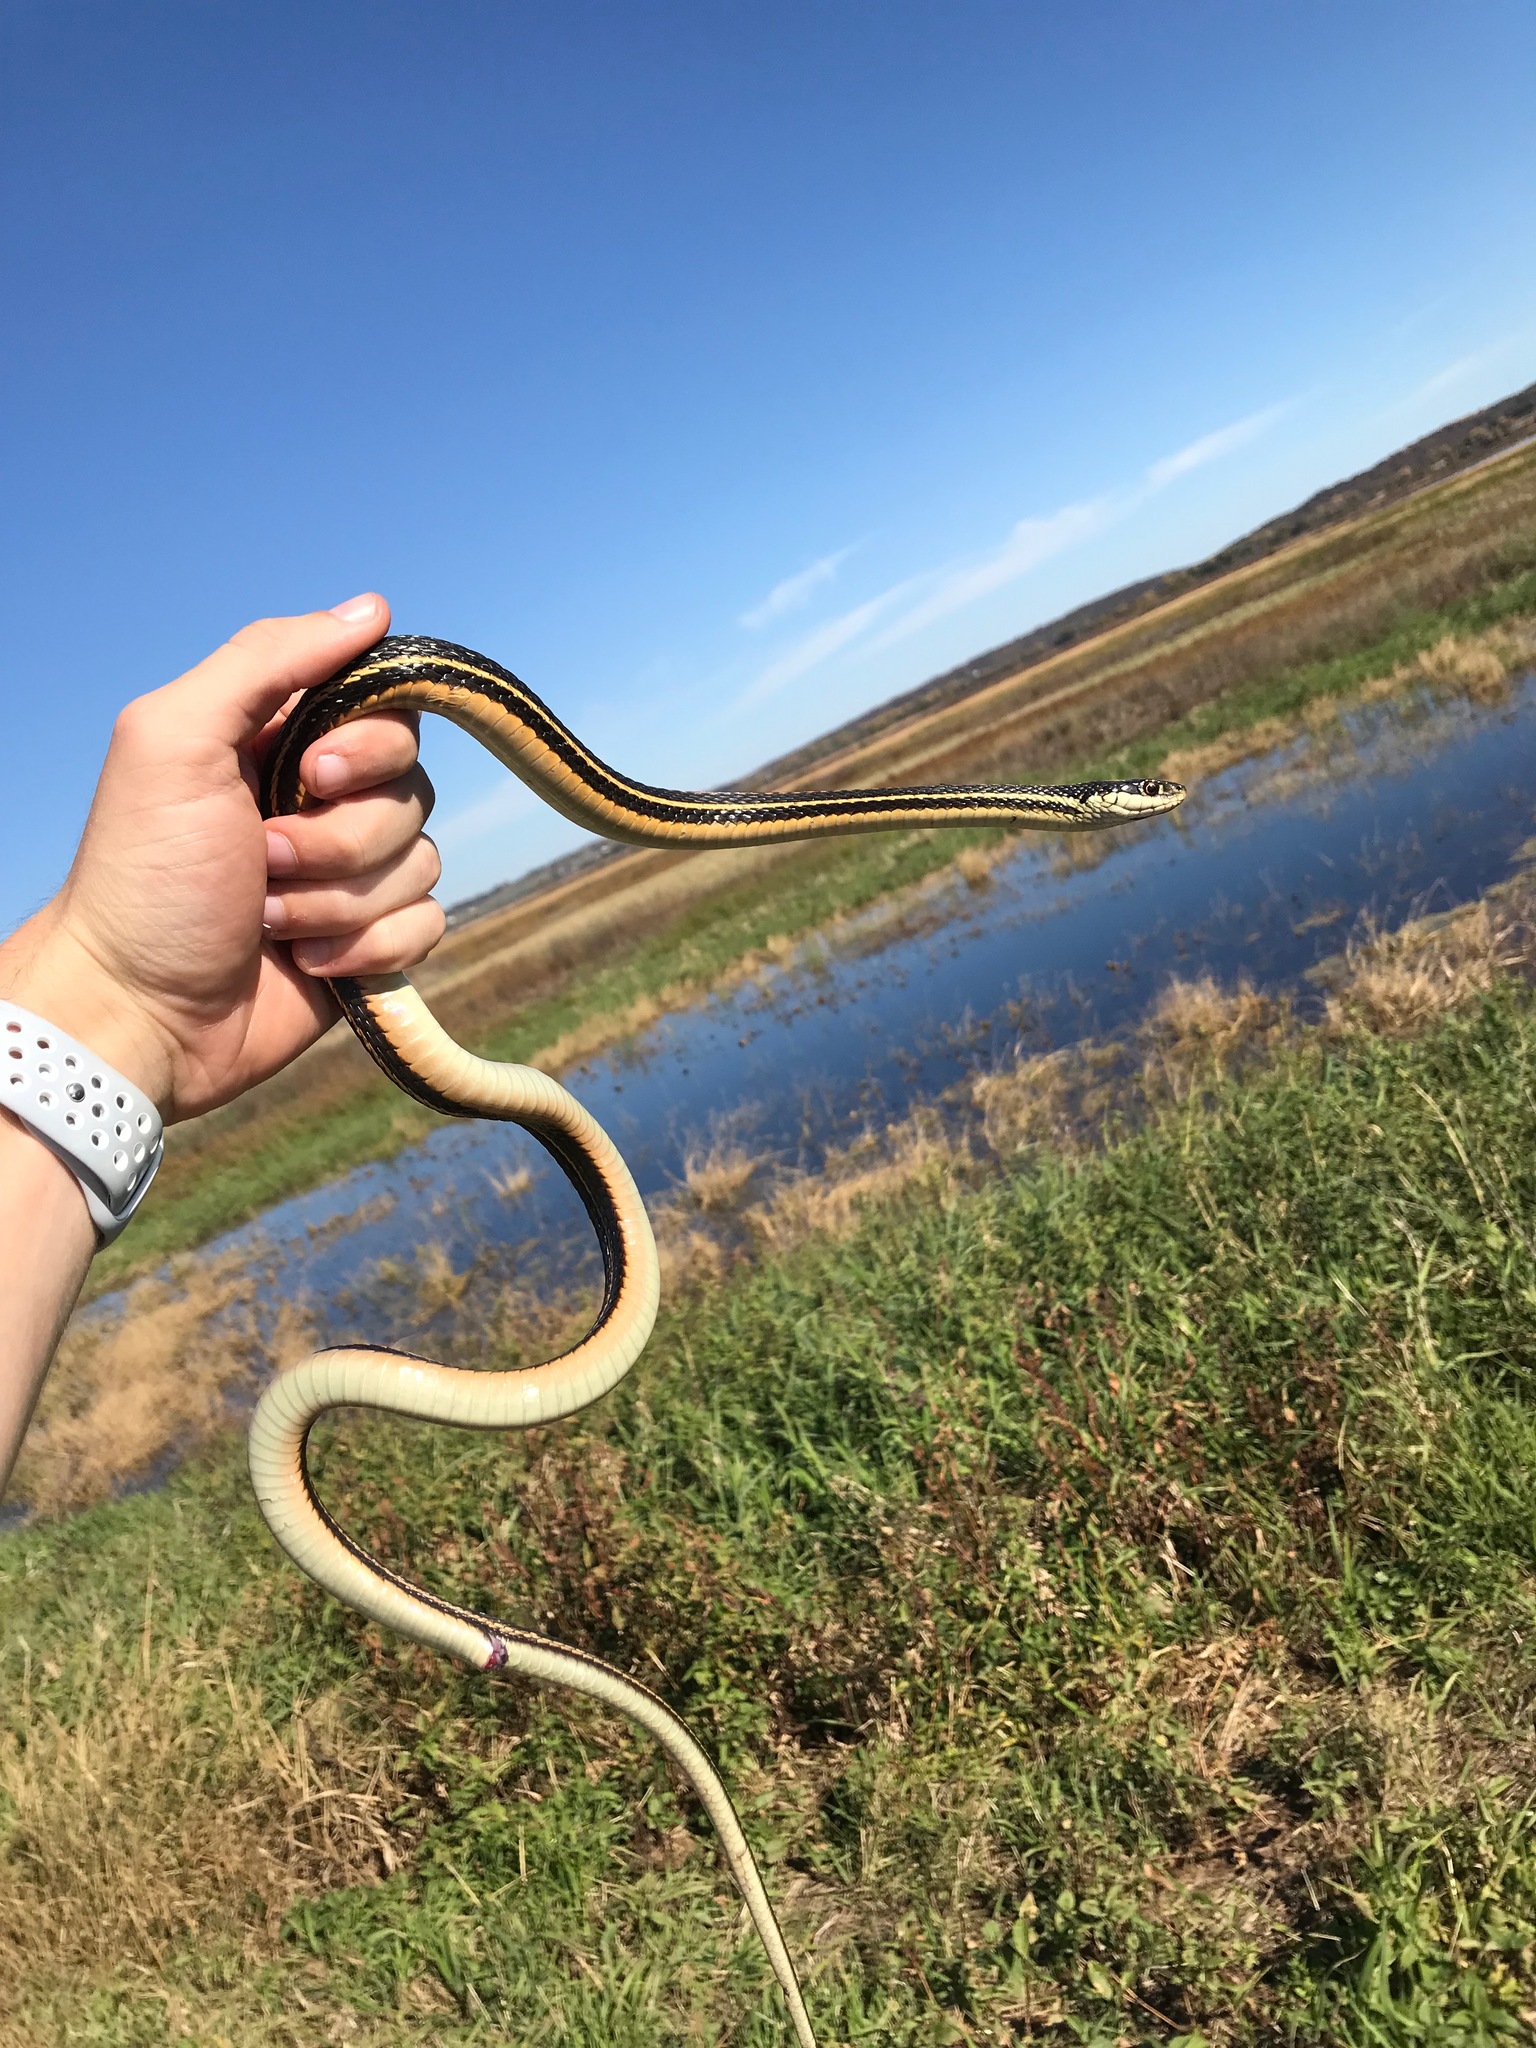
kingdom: Animalia
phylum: Chordata
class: Squamata
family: Colubridae
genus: Thamnophis
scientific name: Thamnophis proximus
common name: Western ribbon snake
